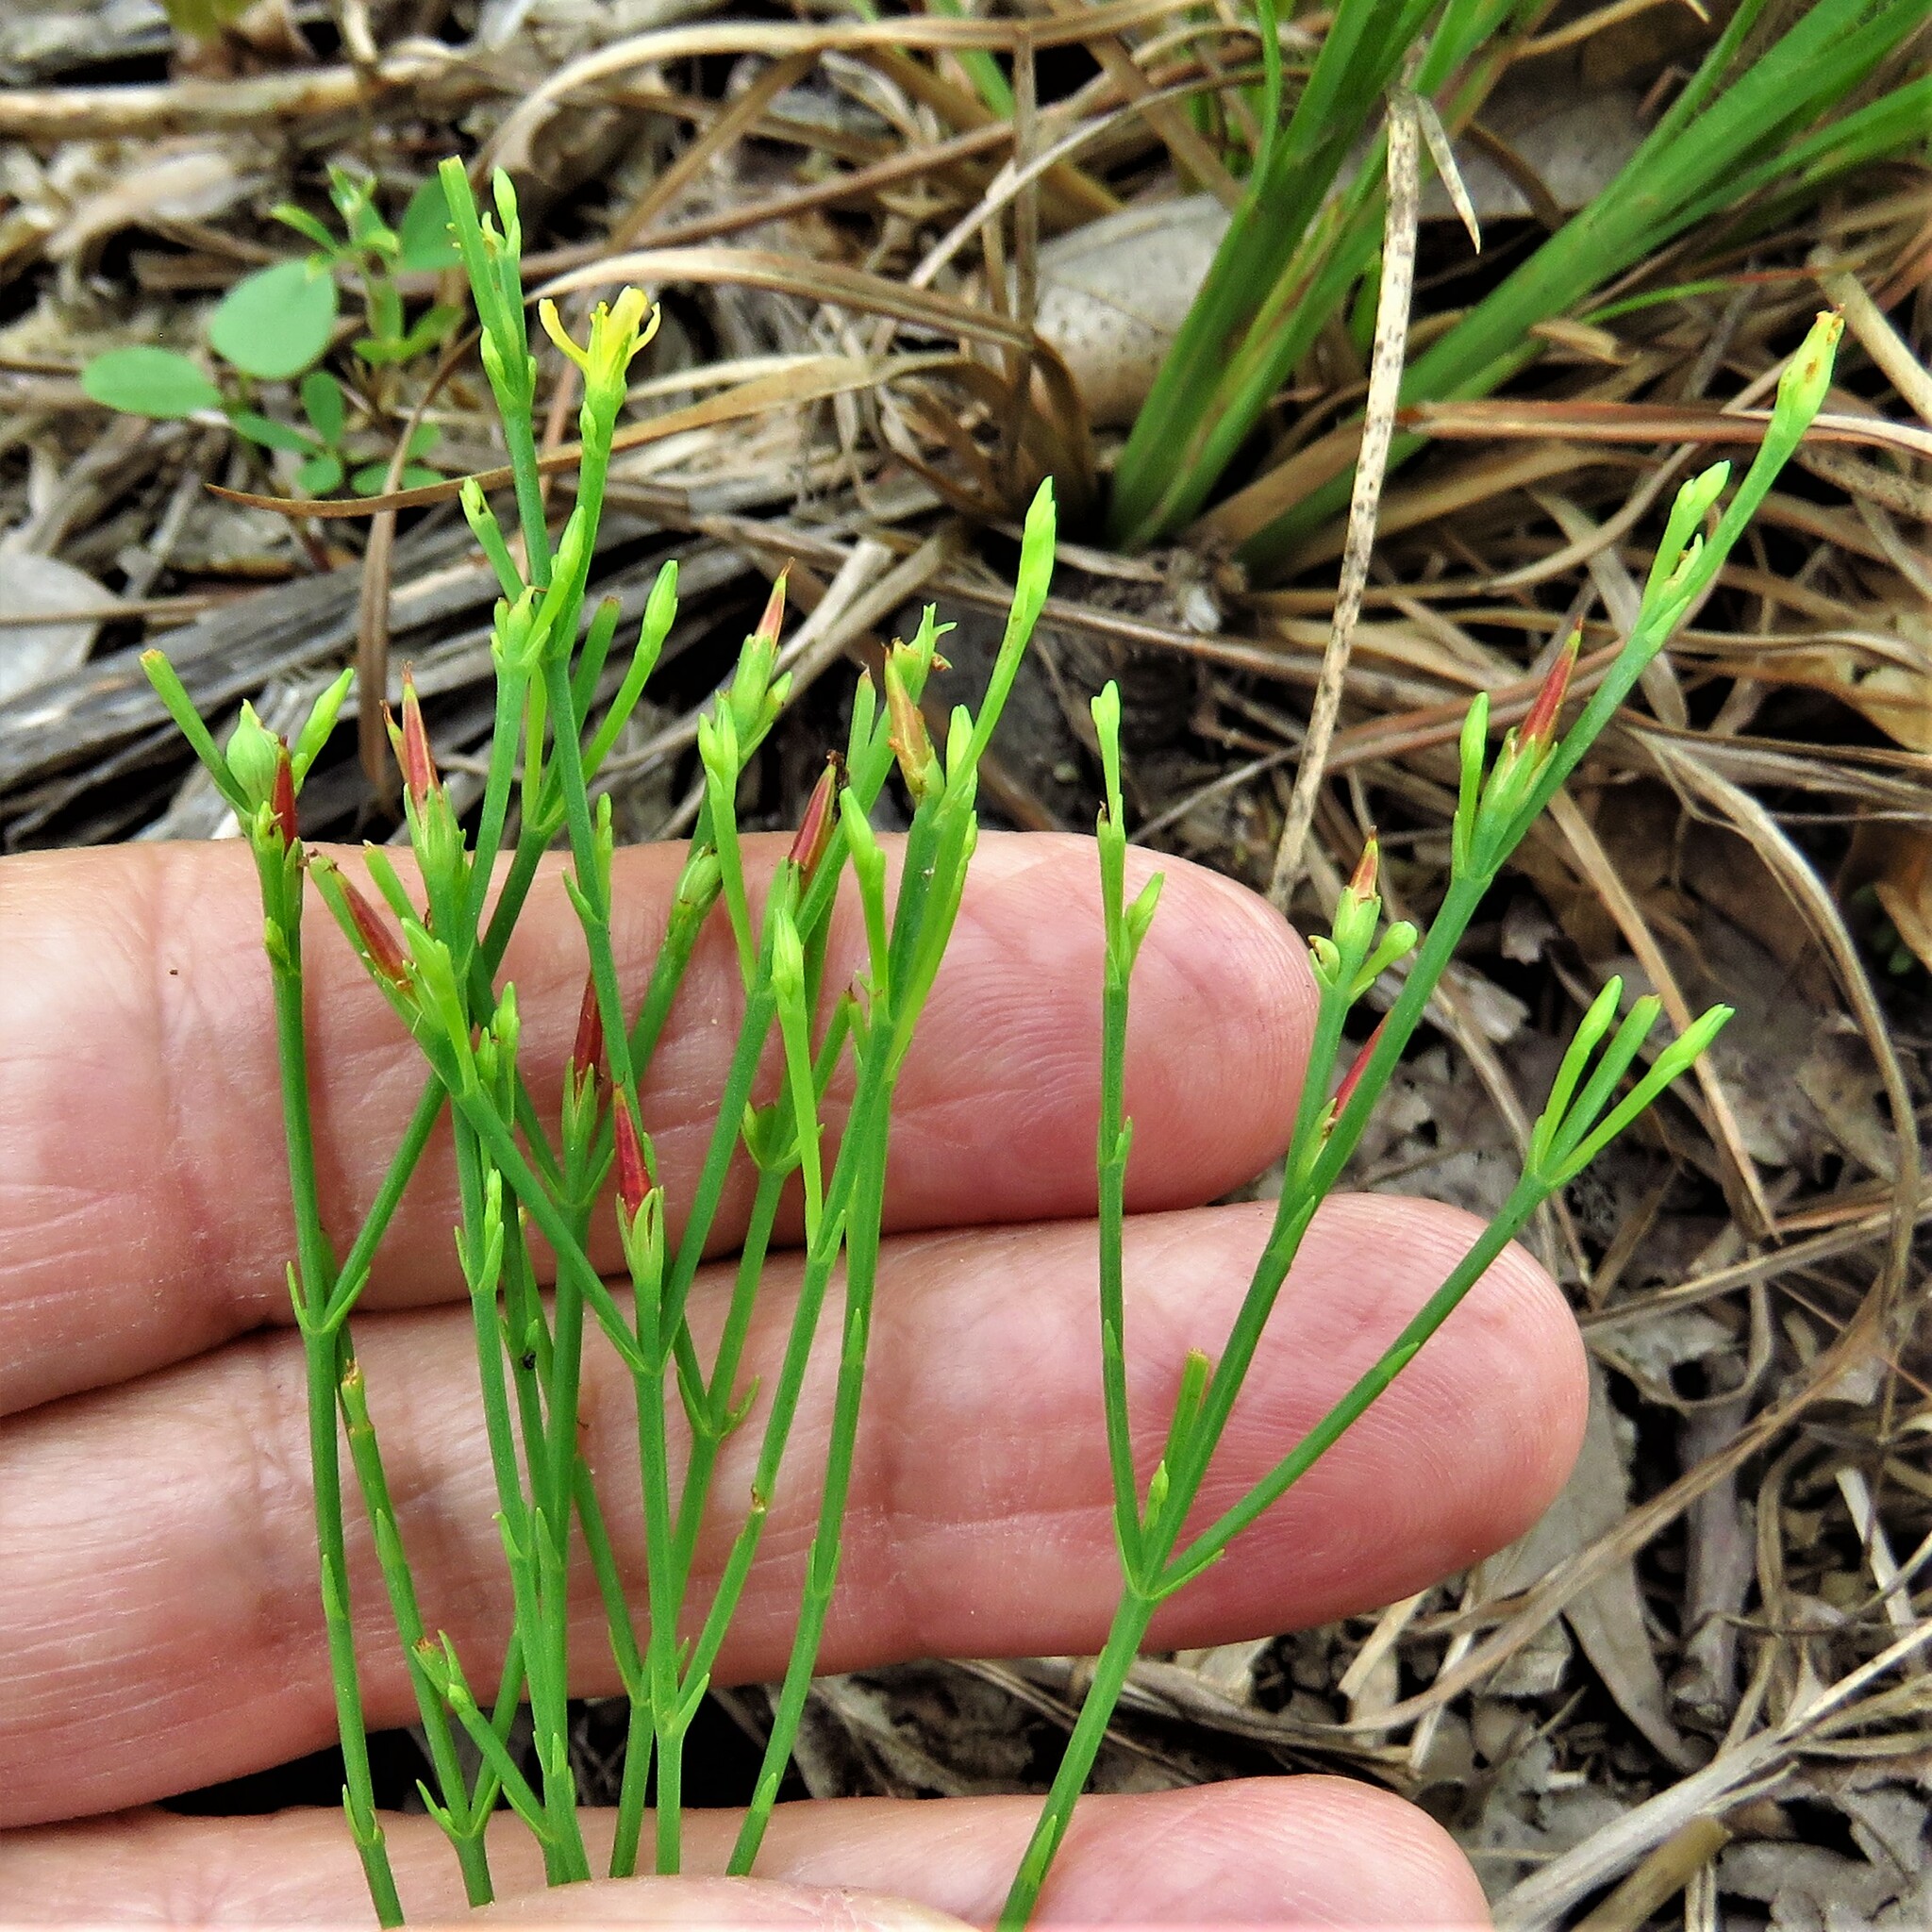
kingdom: Plantae
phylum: Tracheophyta
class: Magnoliopsida
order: Malpighiales
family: Hypericaceae
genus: Hypericum
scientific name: Hypericum gentianoides
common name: Gentian-leaved st. john's-wort
